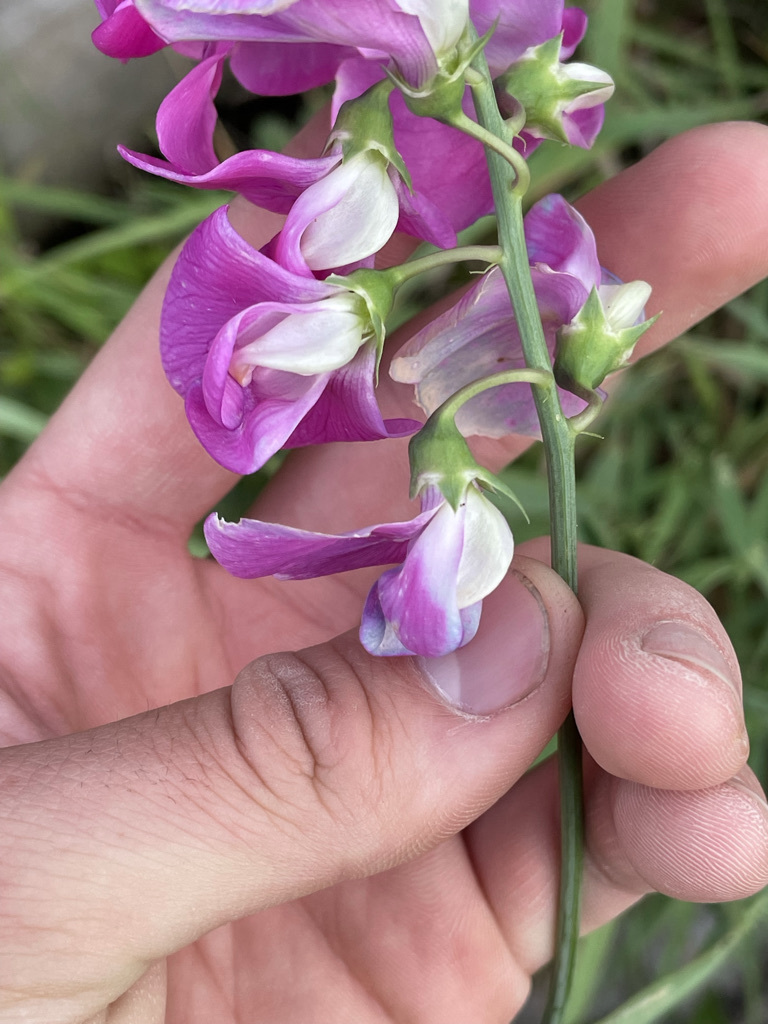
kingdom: Plantae
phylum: Tracheophyta
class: Magnoliopsida
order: Fabales
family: Fabaceae
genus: Lathyrus
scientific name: Lathyrus latifolius
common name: Perennial pea
